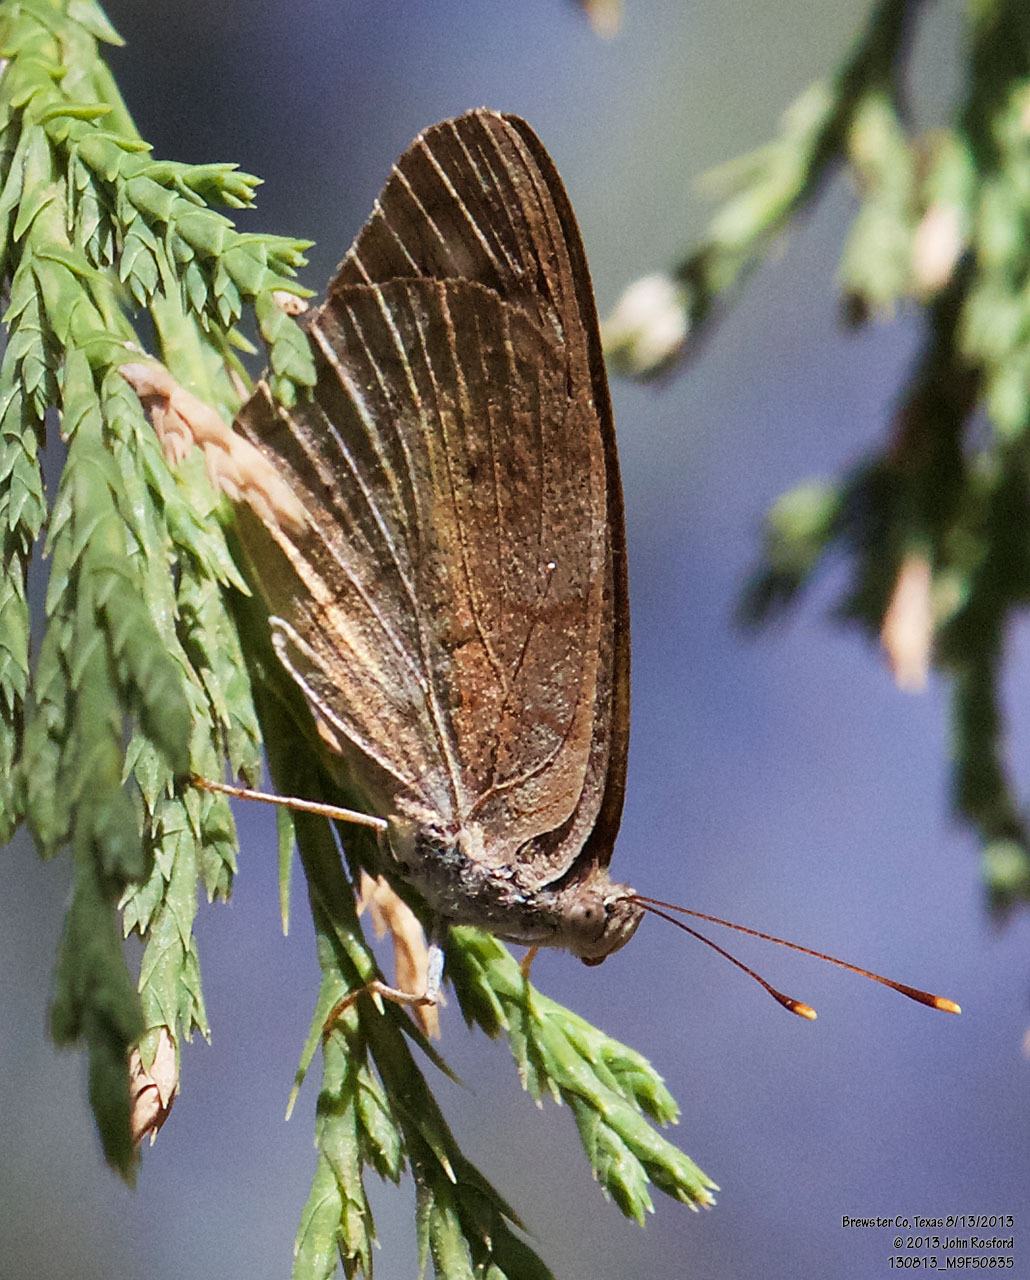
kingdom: Animalia
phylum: Arthropoda
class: Insecta
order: Lepidoptera
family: Nymphalidae
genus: Eunica
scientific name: Eunica monima
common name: Dingy purplewing
